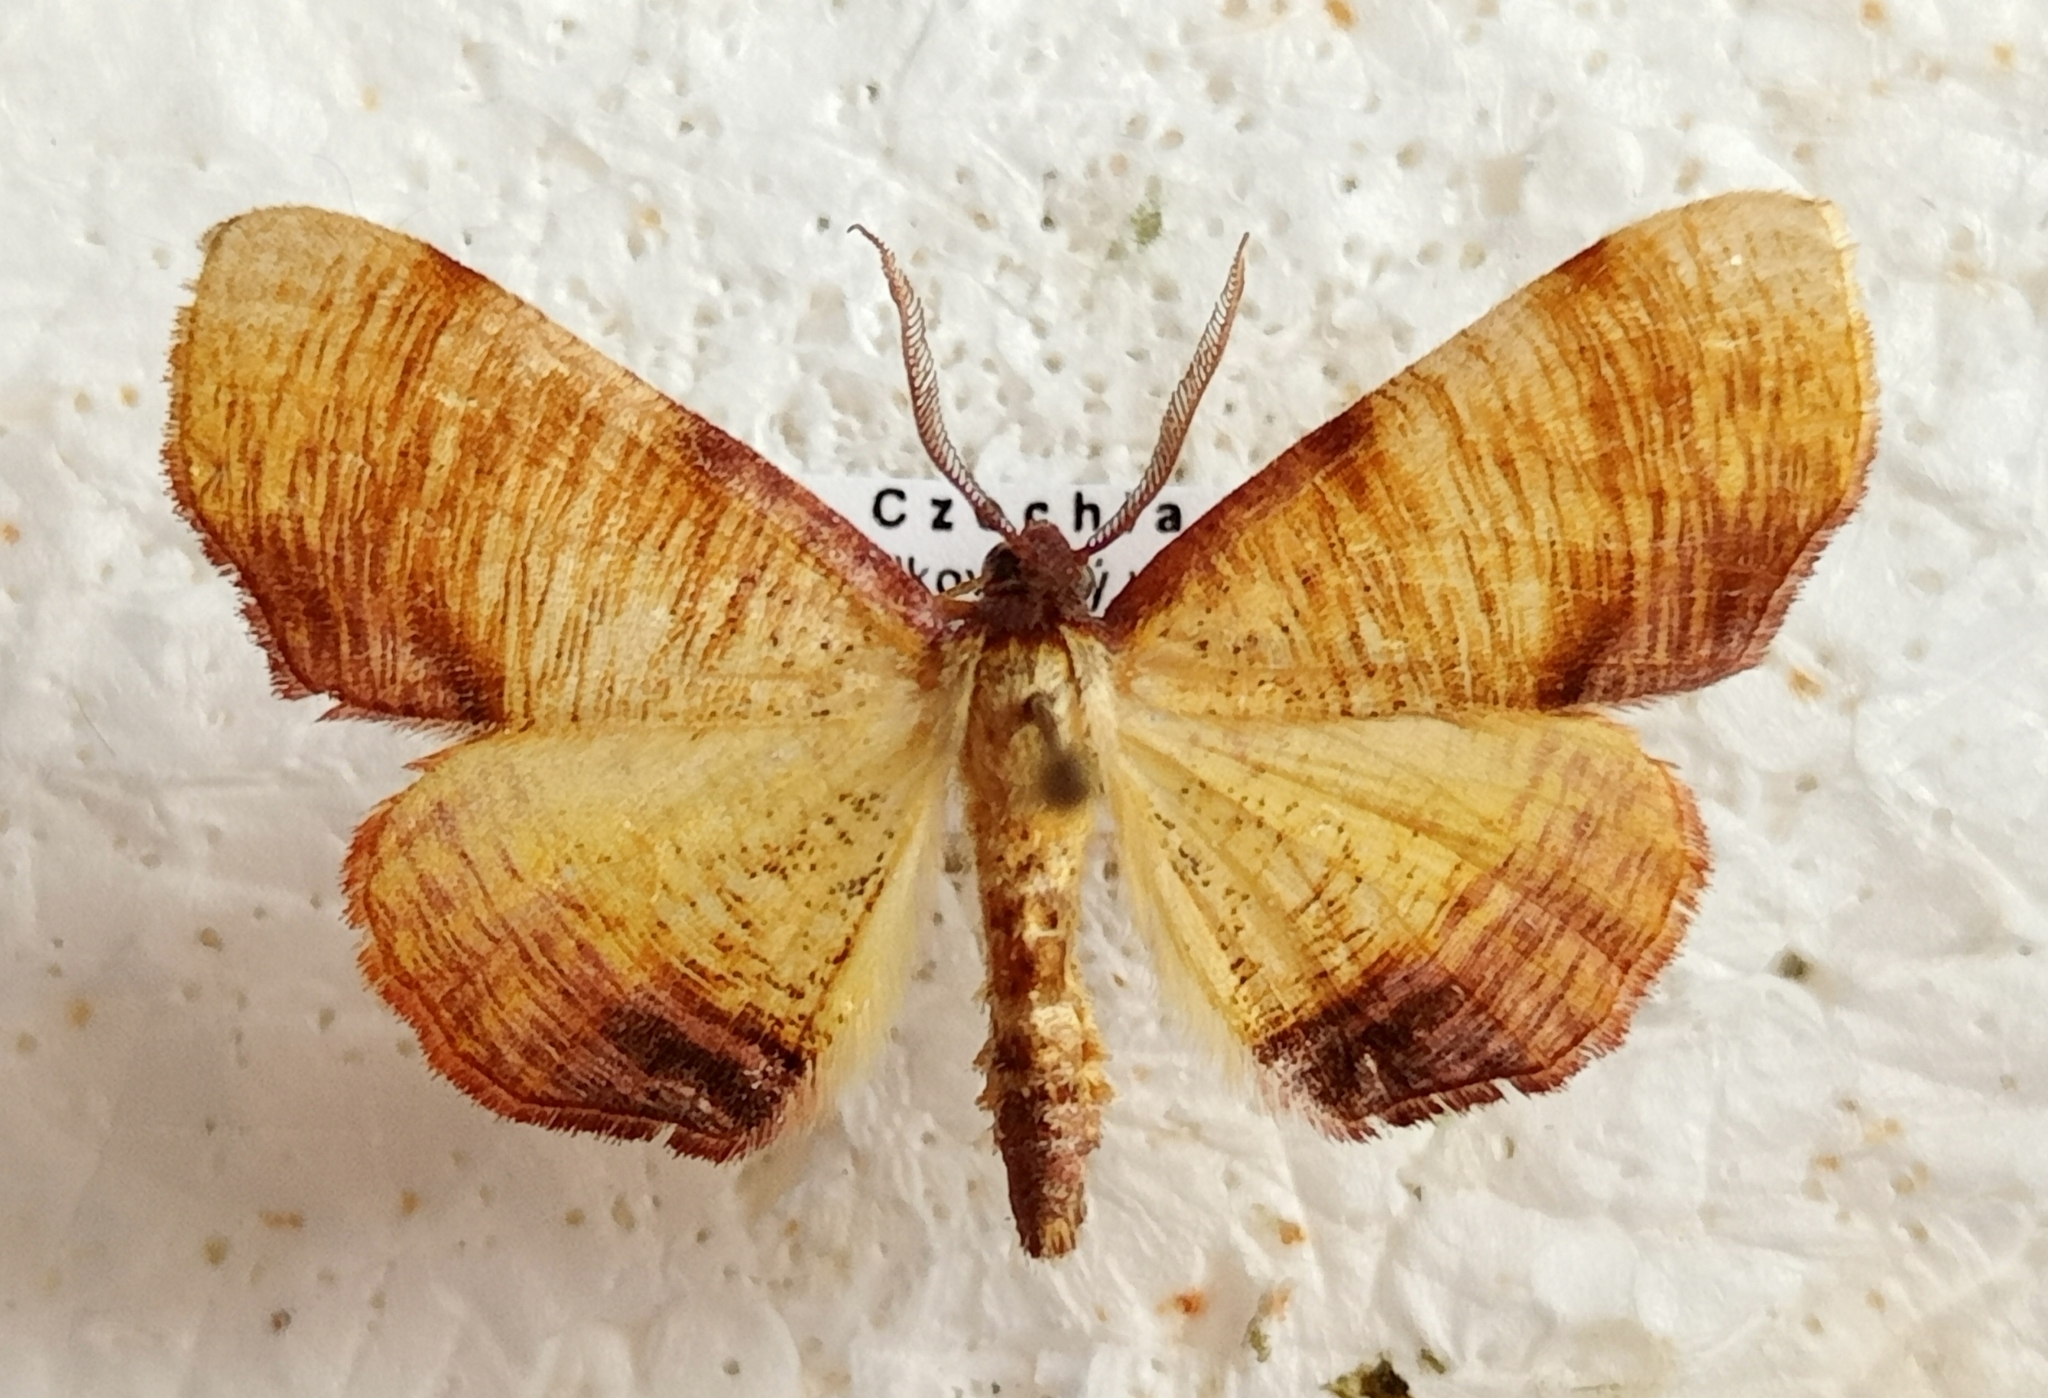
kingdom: Animalia
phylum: Arthropoda
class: Insecta
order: Lepidoptera
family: Geometridae
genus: Plagodis
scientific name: Plagodis dolabraria
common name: Scorched wing
